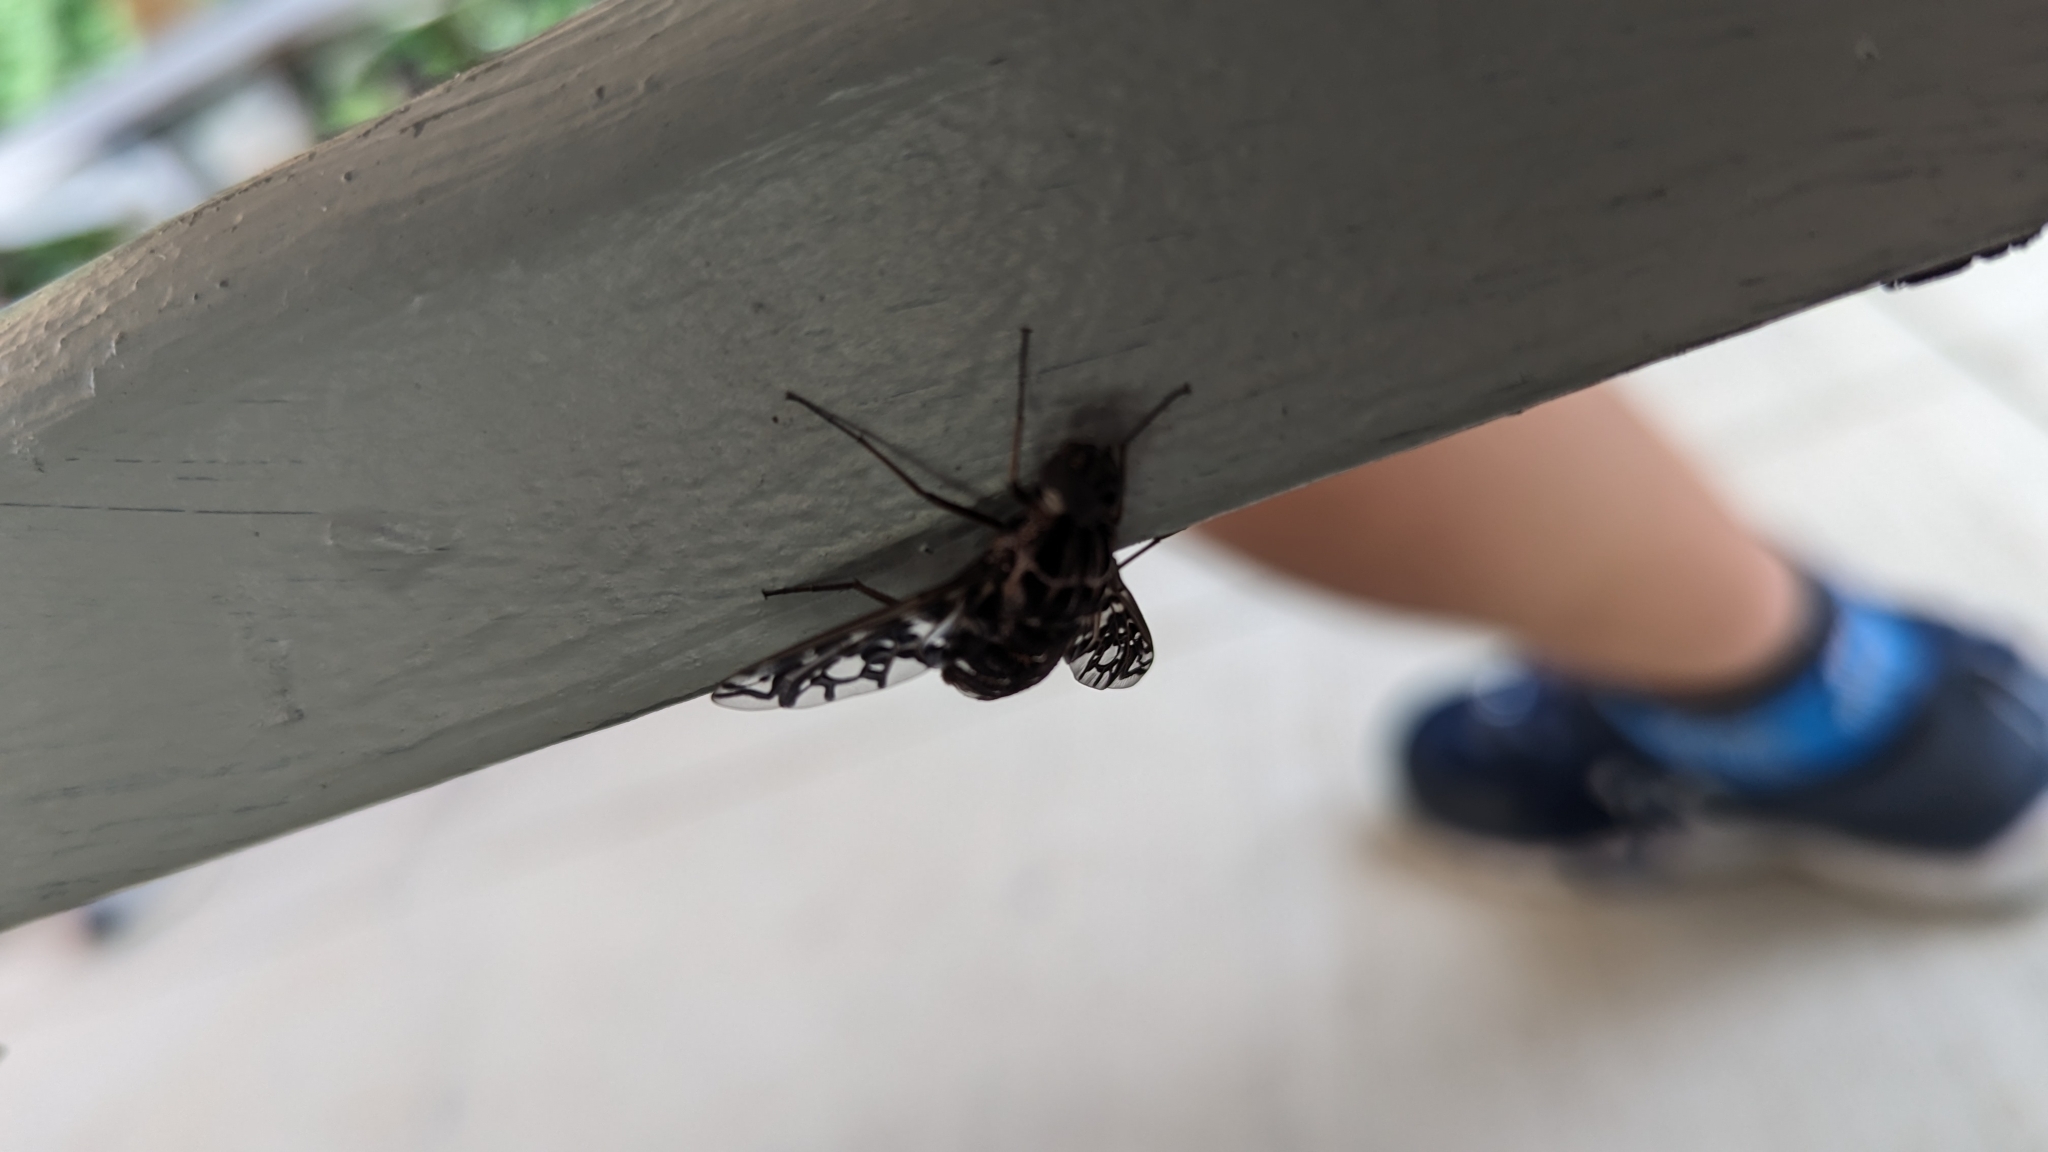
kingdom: Animalia
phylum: Arthropoda
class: Insecta
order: Diptera
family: Bombyliidae
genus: Xenox
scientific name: Xenox tigrinus
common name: Tiger bee fly
